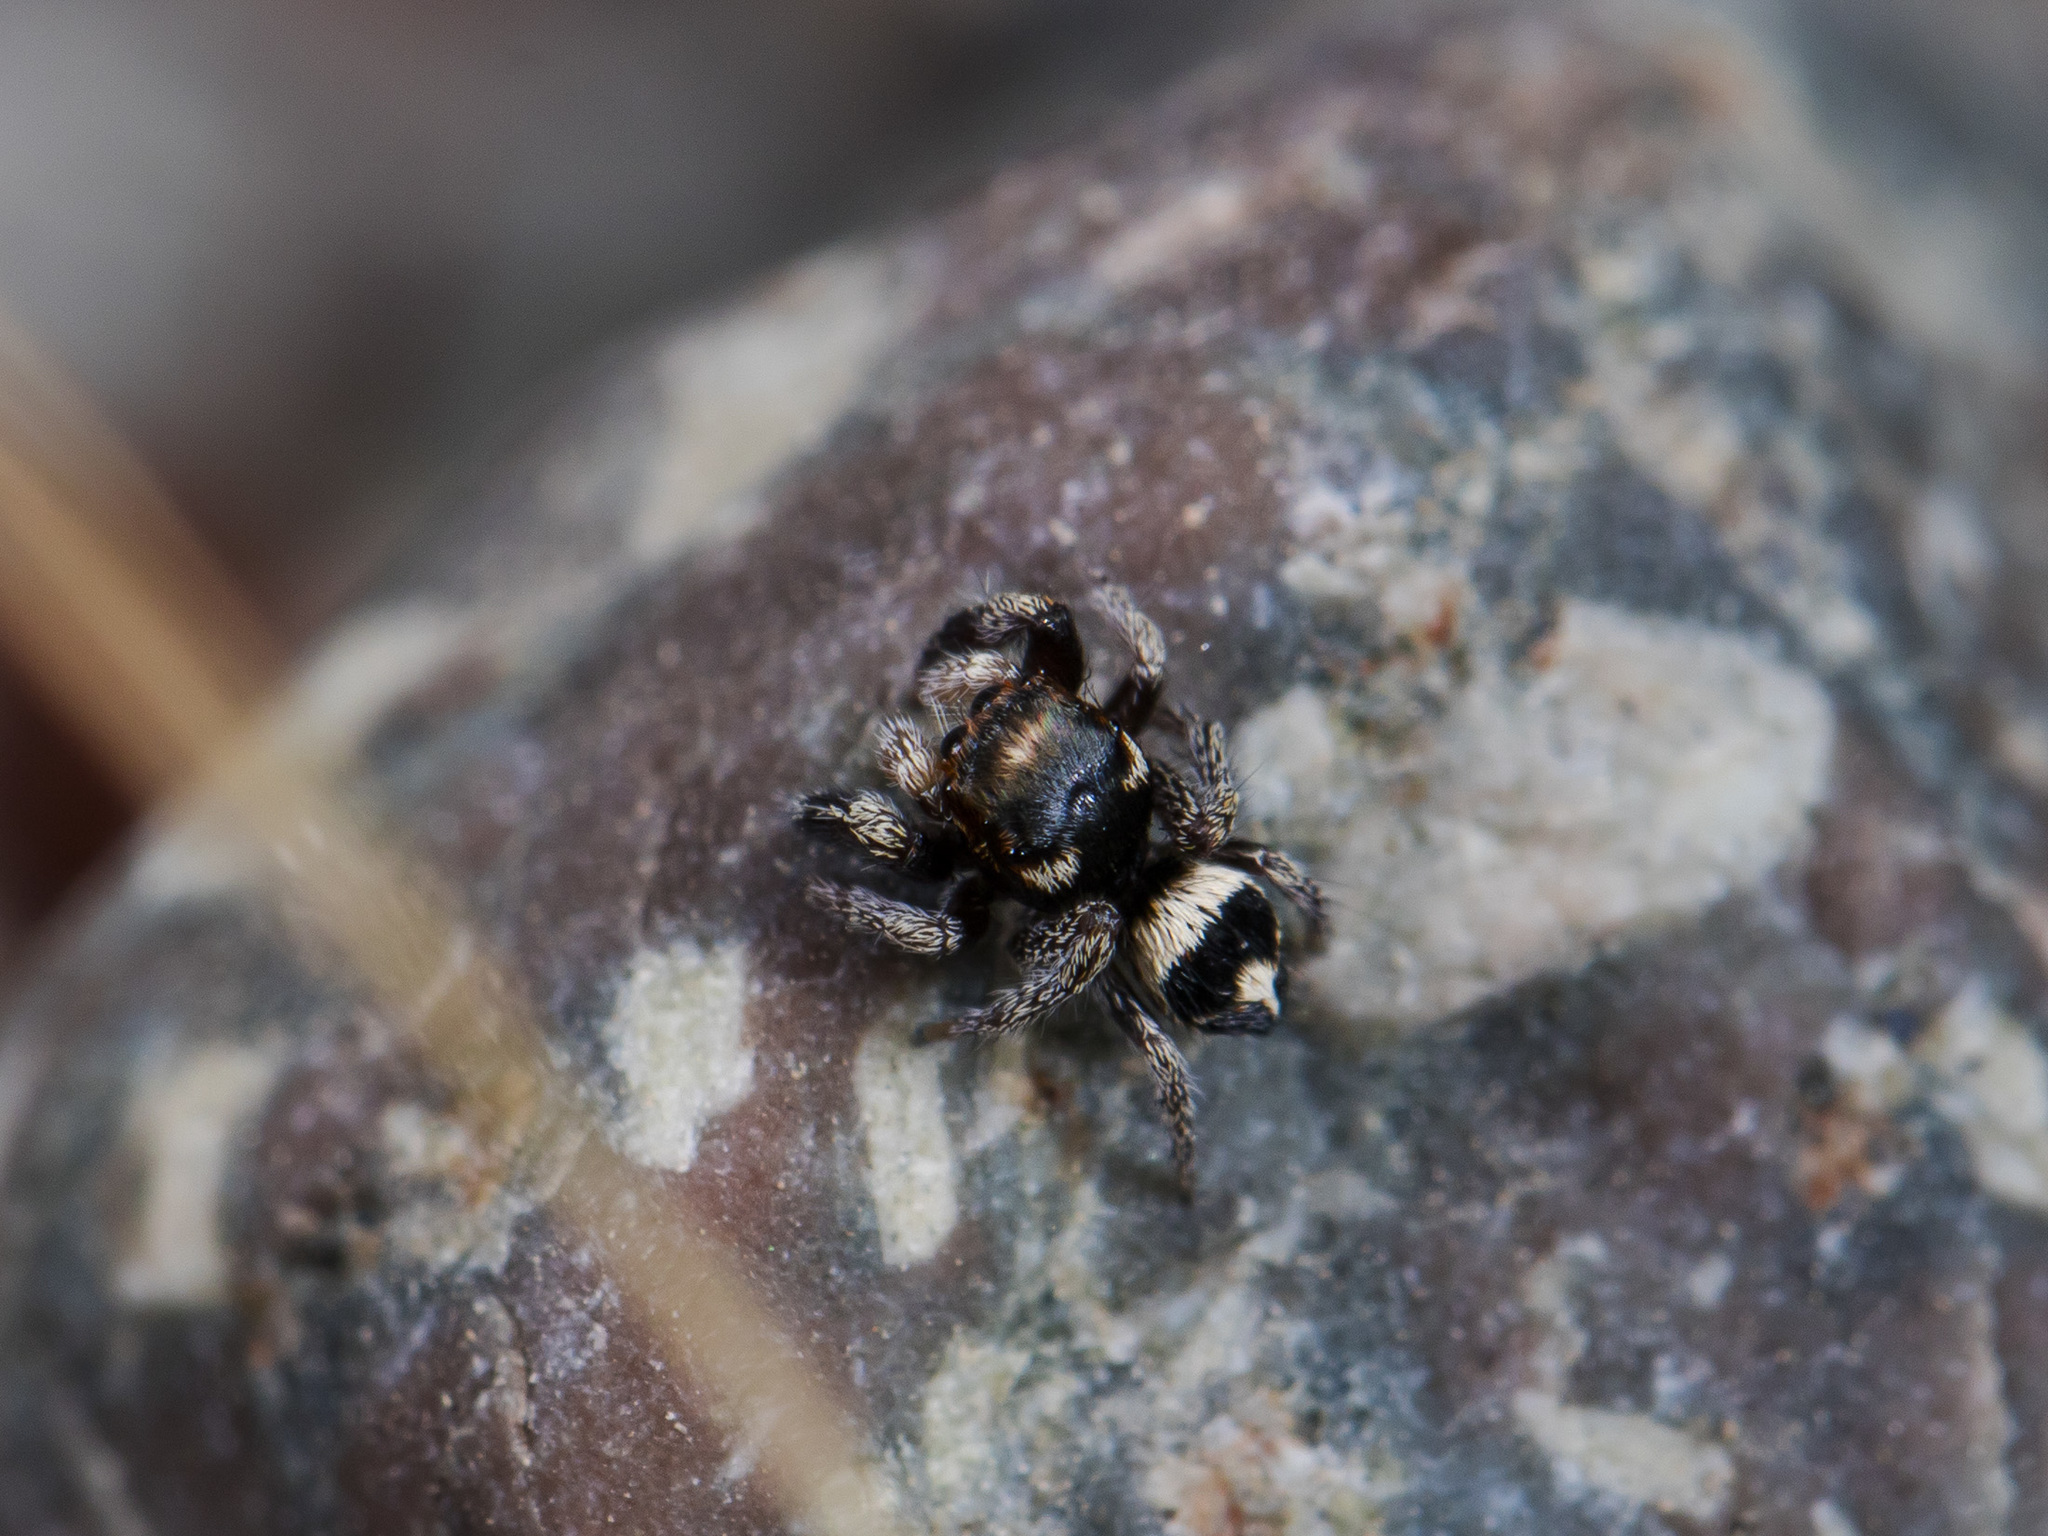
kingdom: Animalia
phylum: Arthropoda
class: Arachnida
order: Araneae
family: Salticidae
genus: Pellenes
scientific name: Pellenes geniculatus
